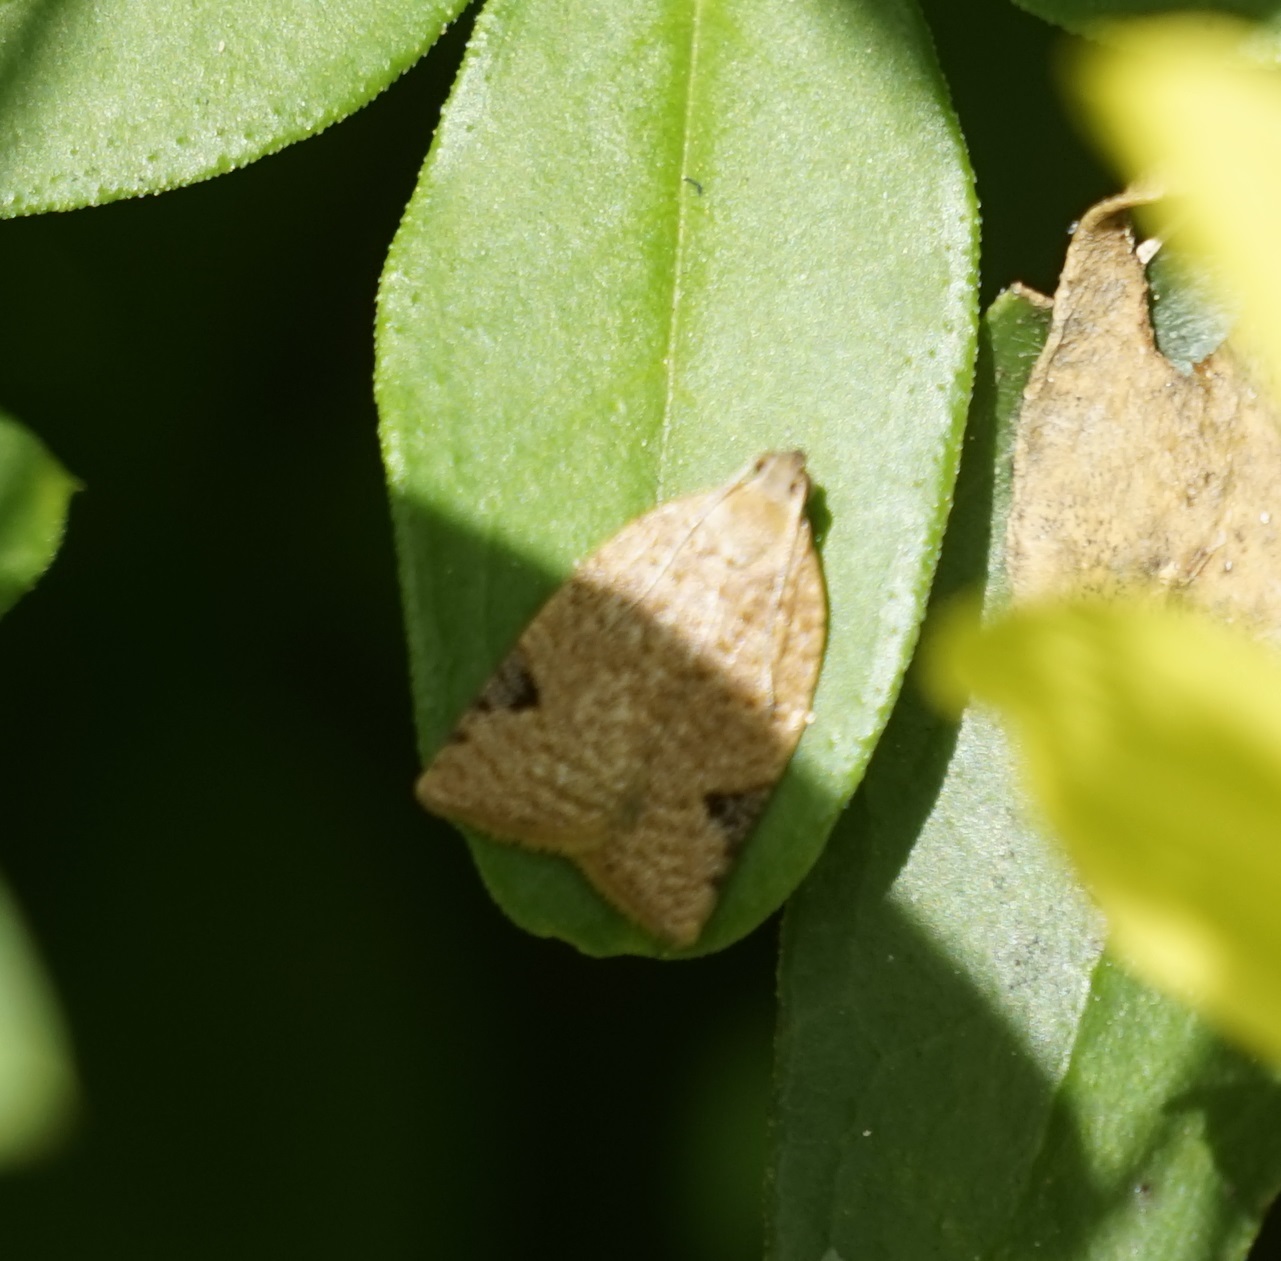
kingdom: Animalia
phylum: Arthropoda
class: Insecta
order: Lepidoptera
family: Tortricidae
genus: Meritastis
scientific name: Meritastis ursina
